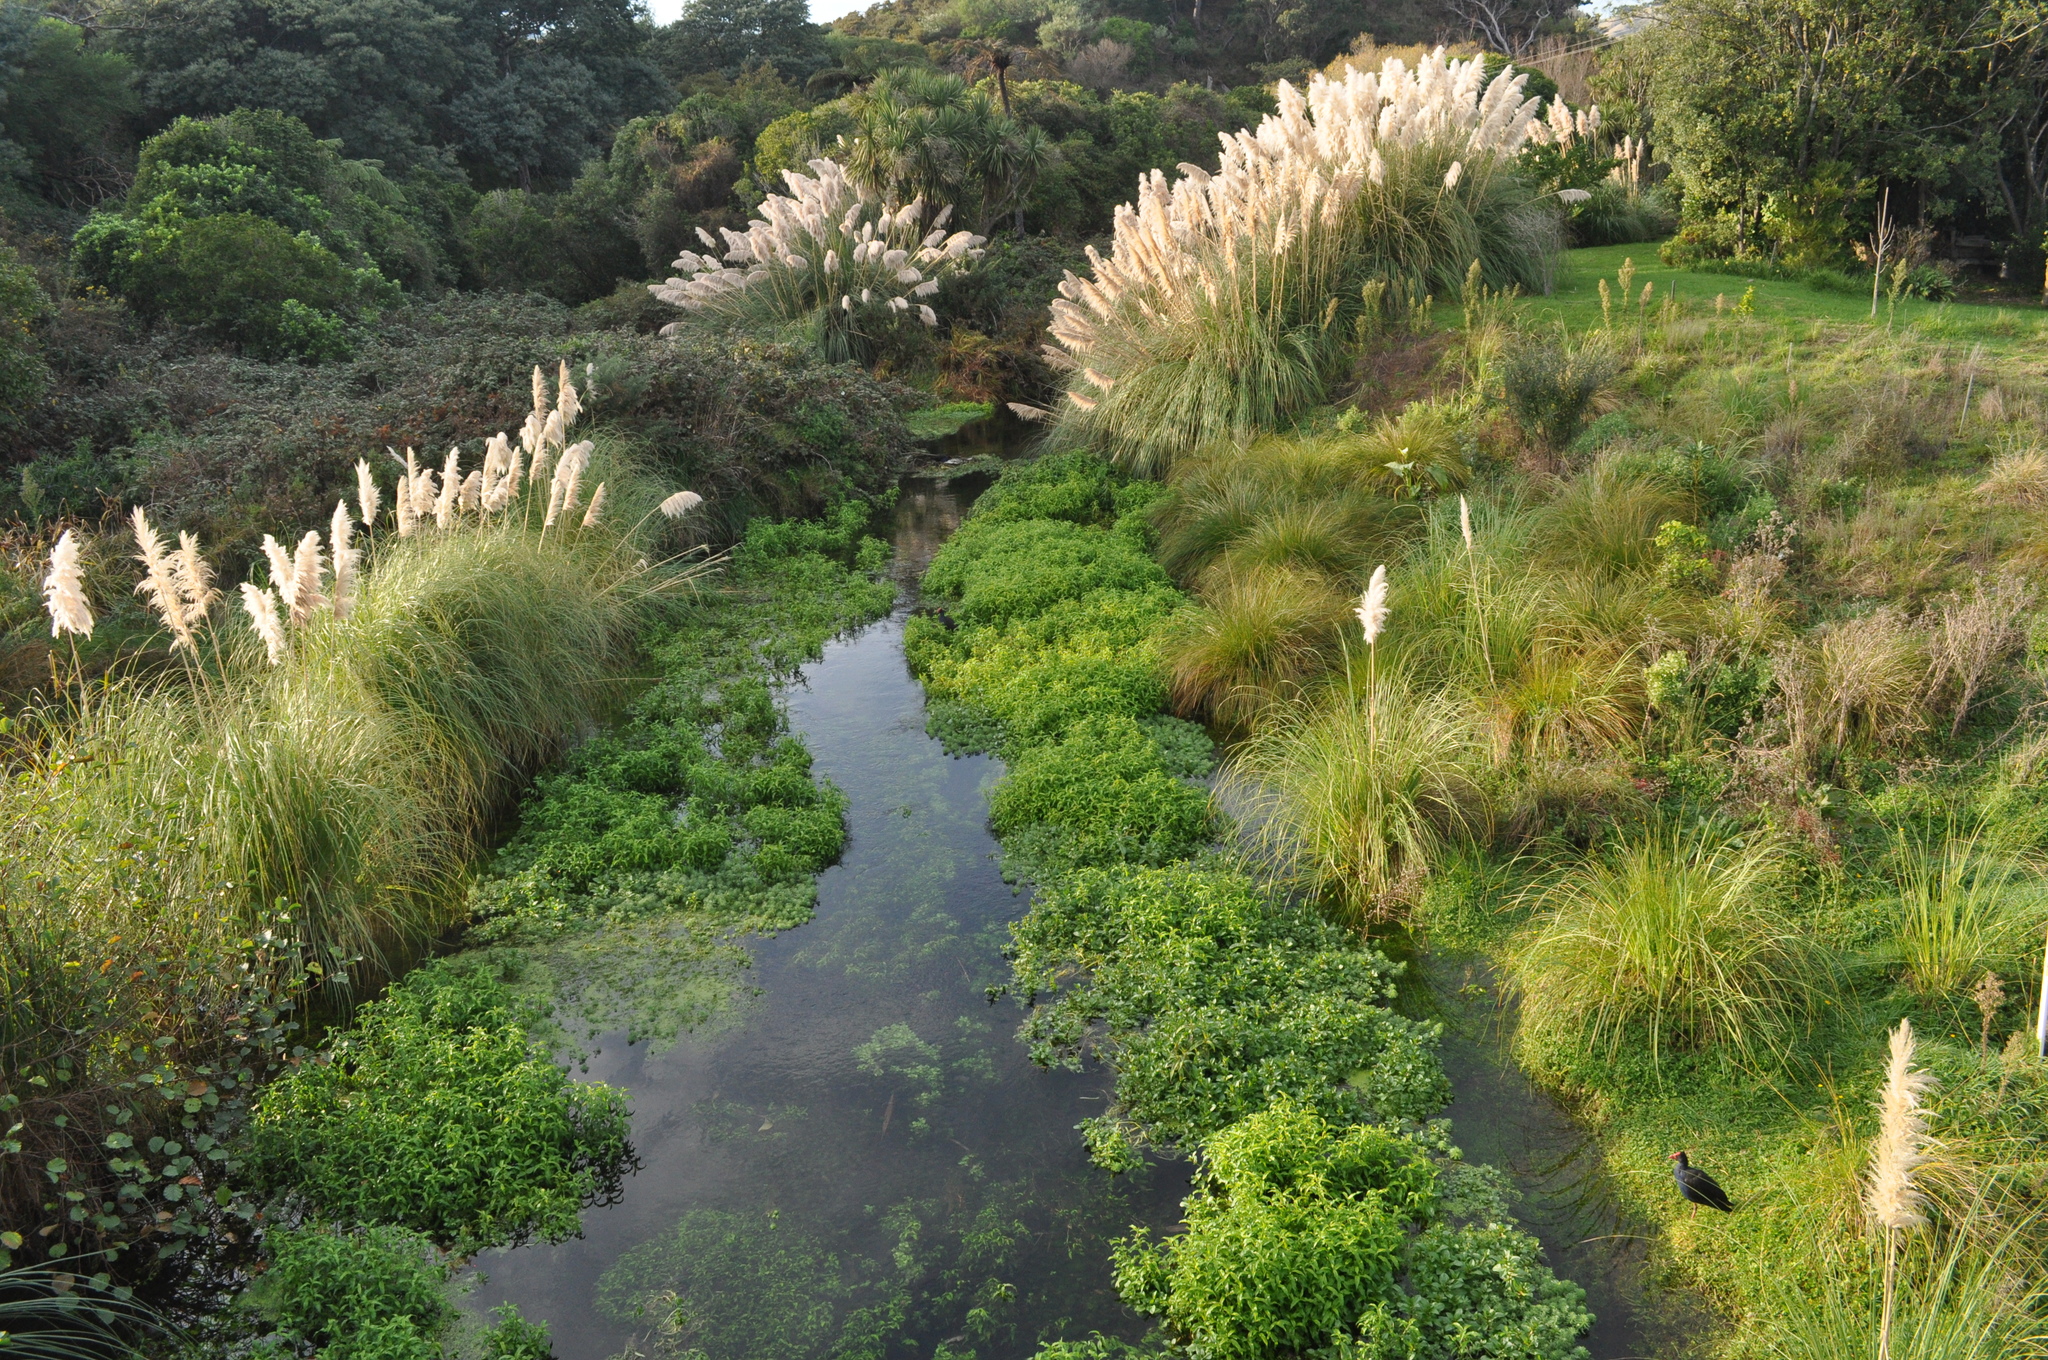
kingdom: Plantae
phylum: Tracheophyta
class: Liliopsida
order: Poales
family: Poaceae
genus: Cortaderia
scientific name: Cortaderia selloana
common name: Uruguayan pampas grass
